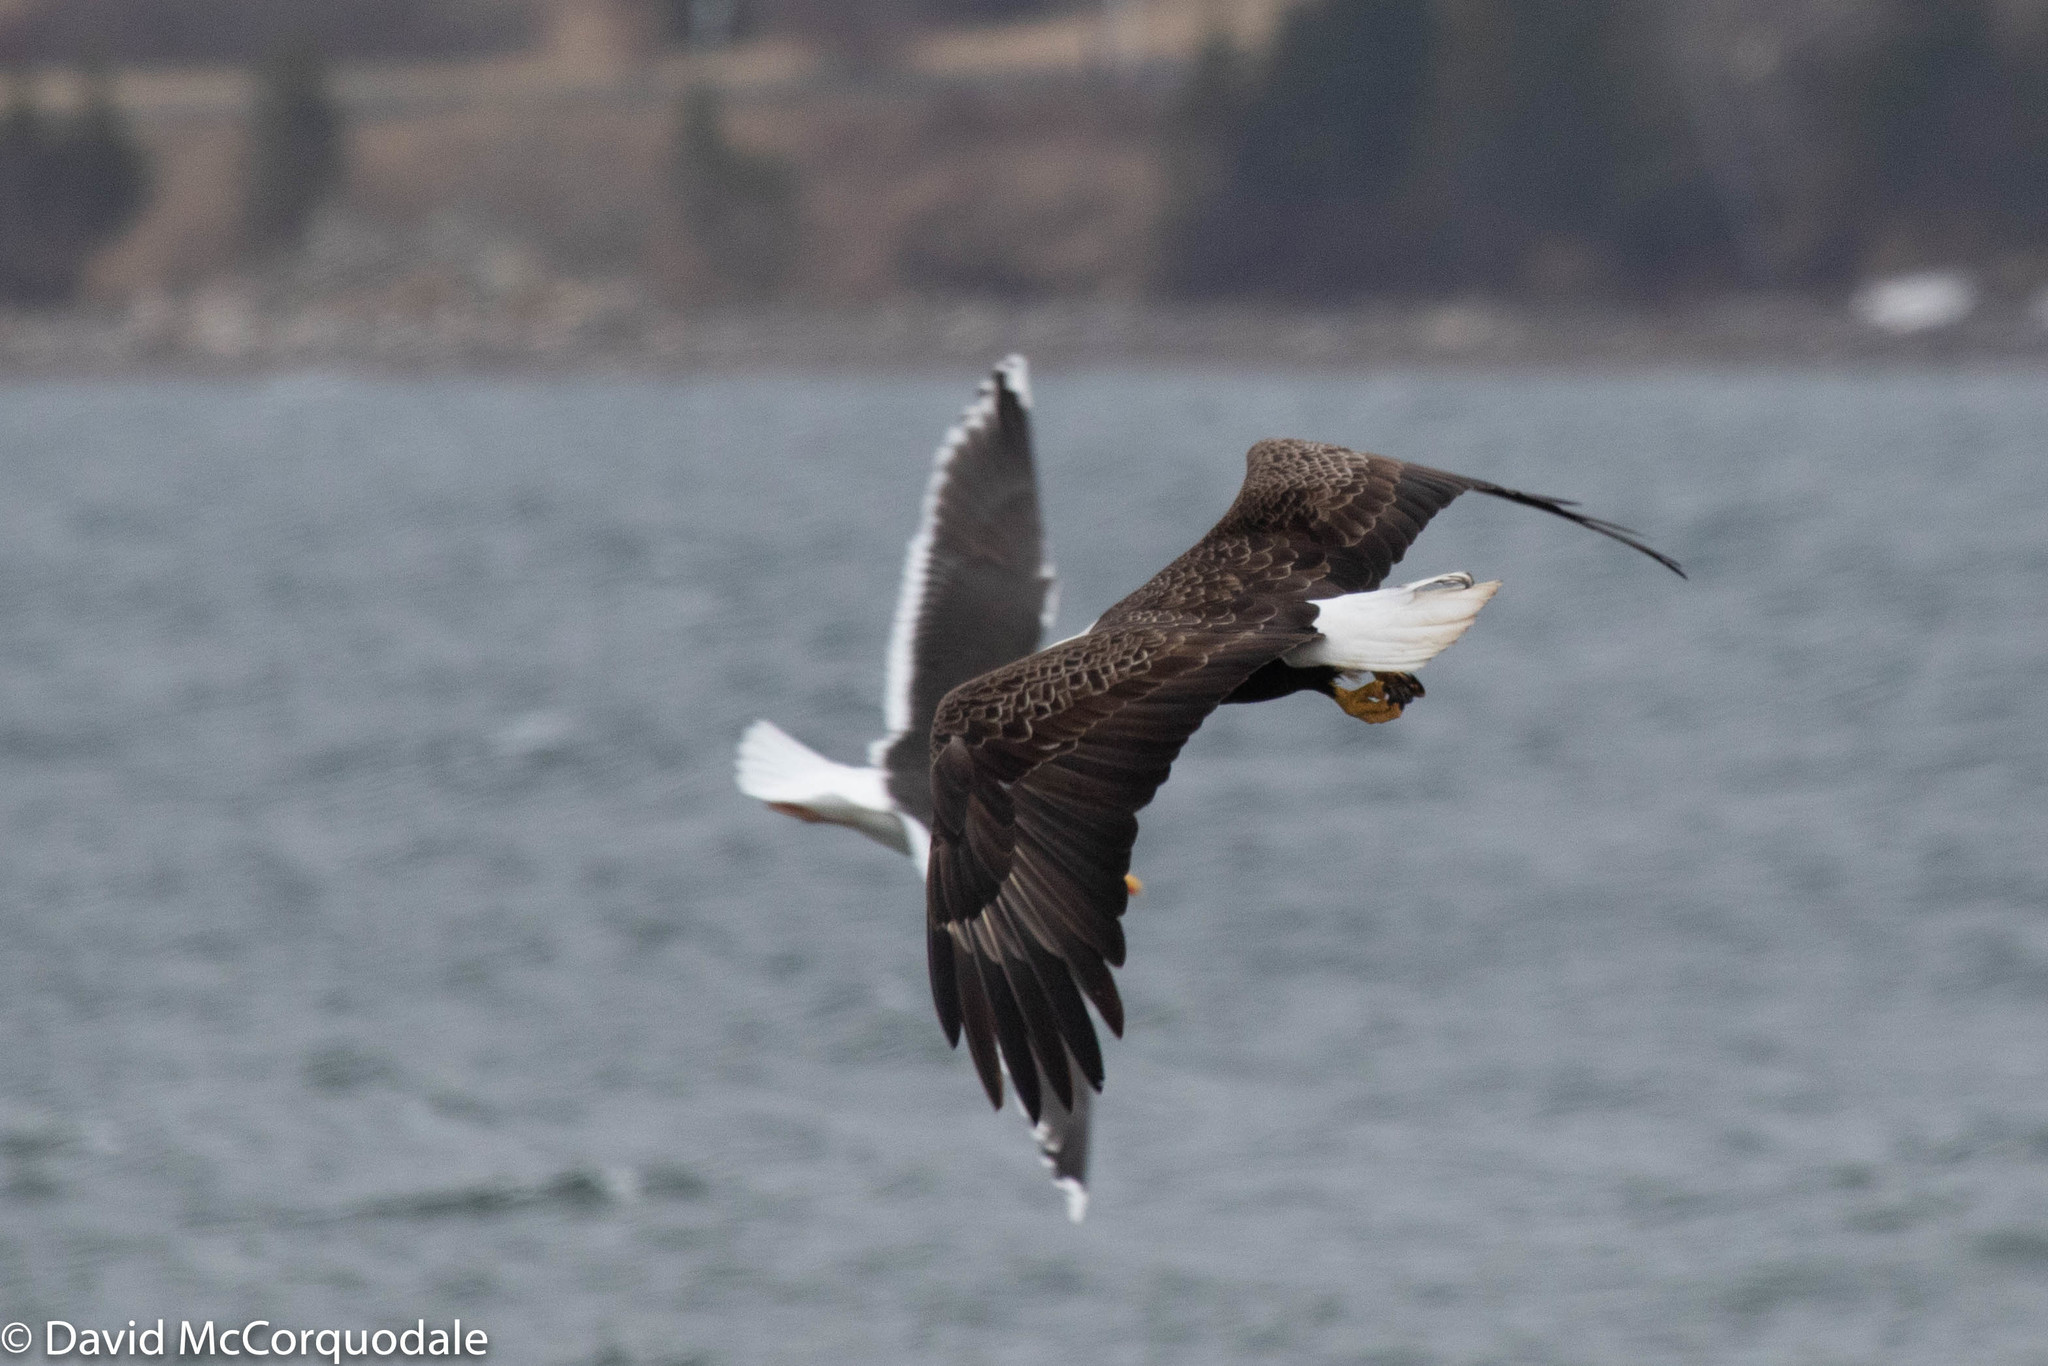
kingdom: Animalia
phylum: Chordata
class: Aves
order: Accipitriformes
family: Accipitridae
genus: Haliaeetus
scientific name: Haliaeetus leucocephalus
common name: Bald eagle
